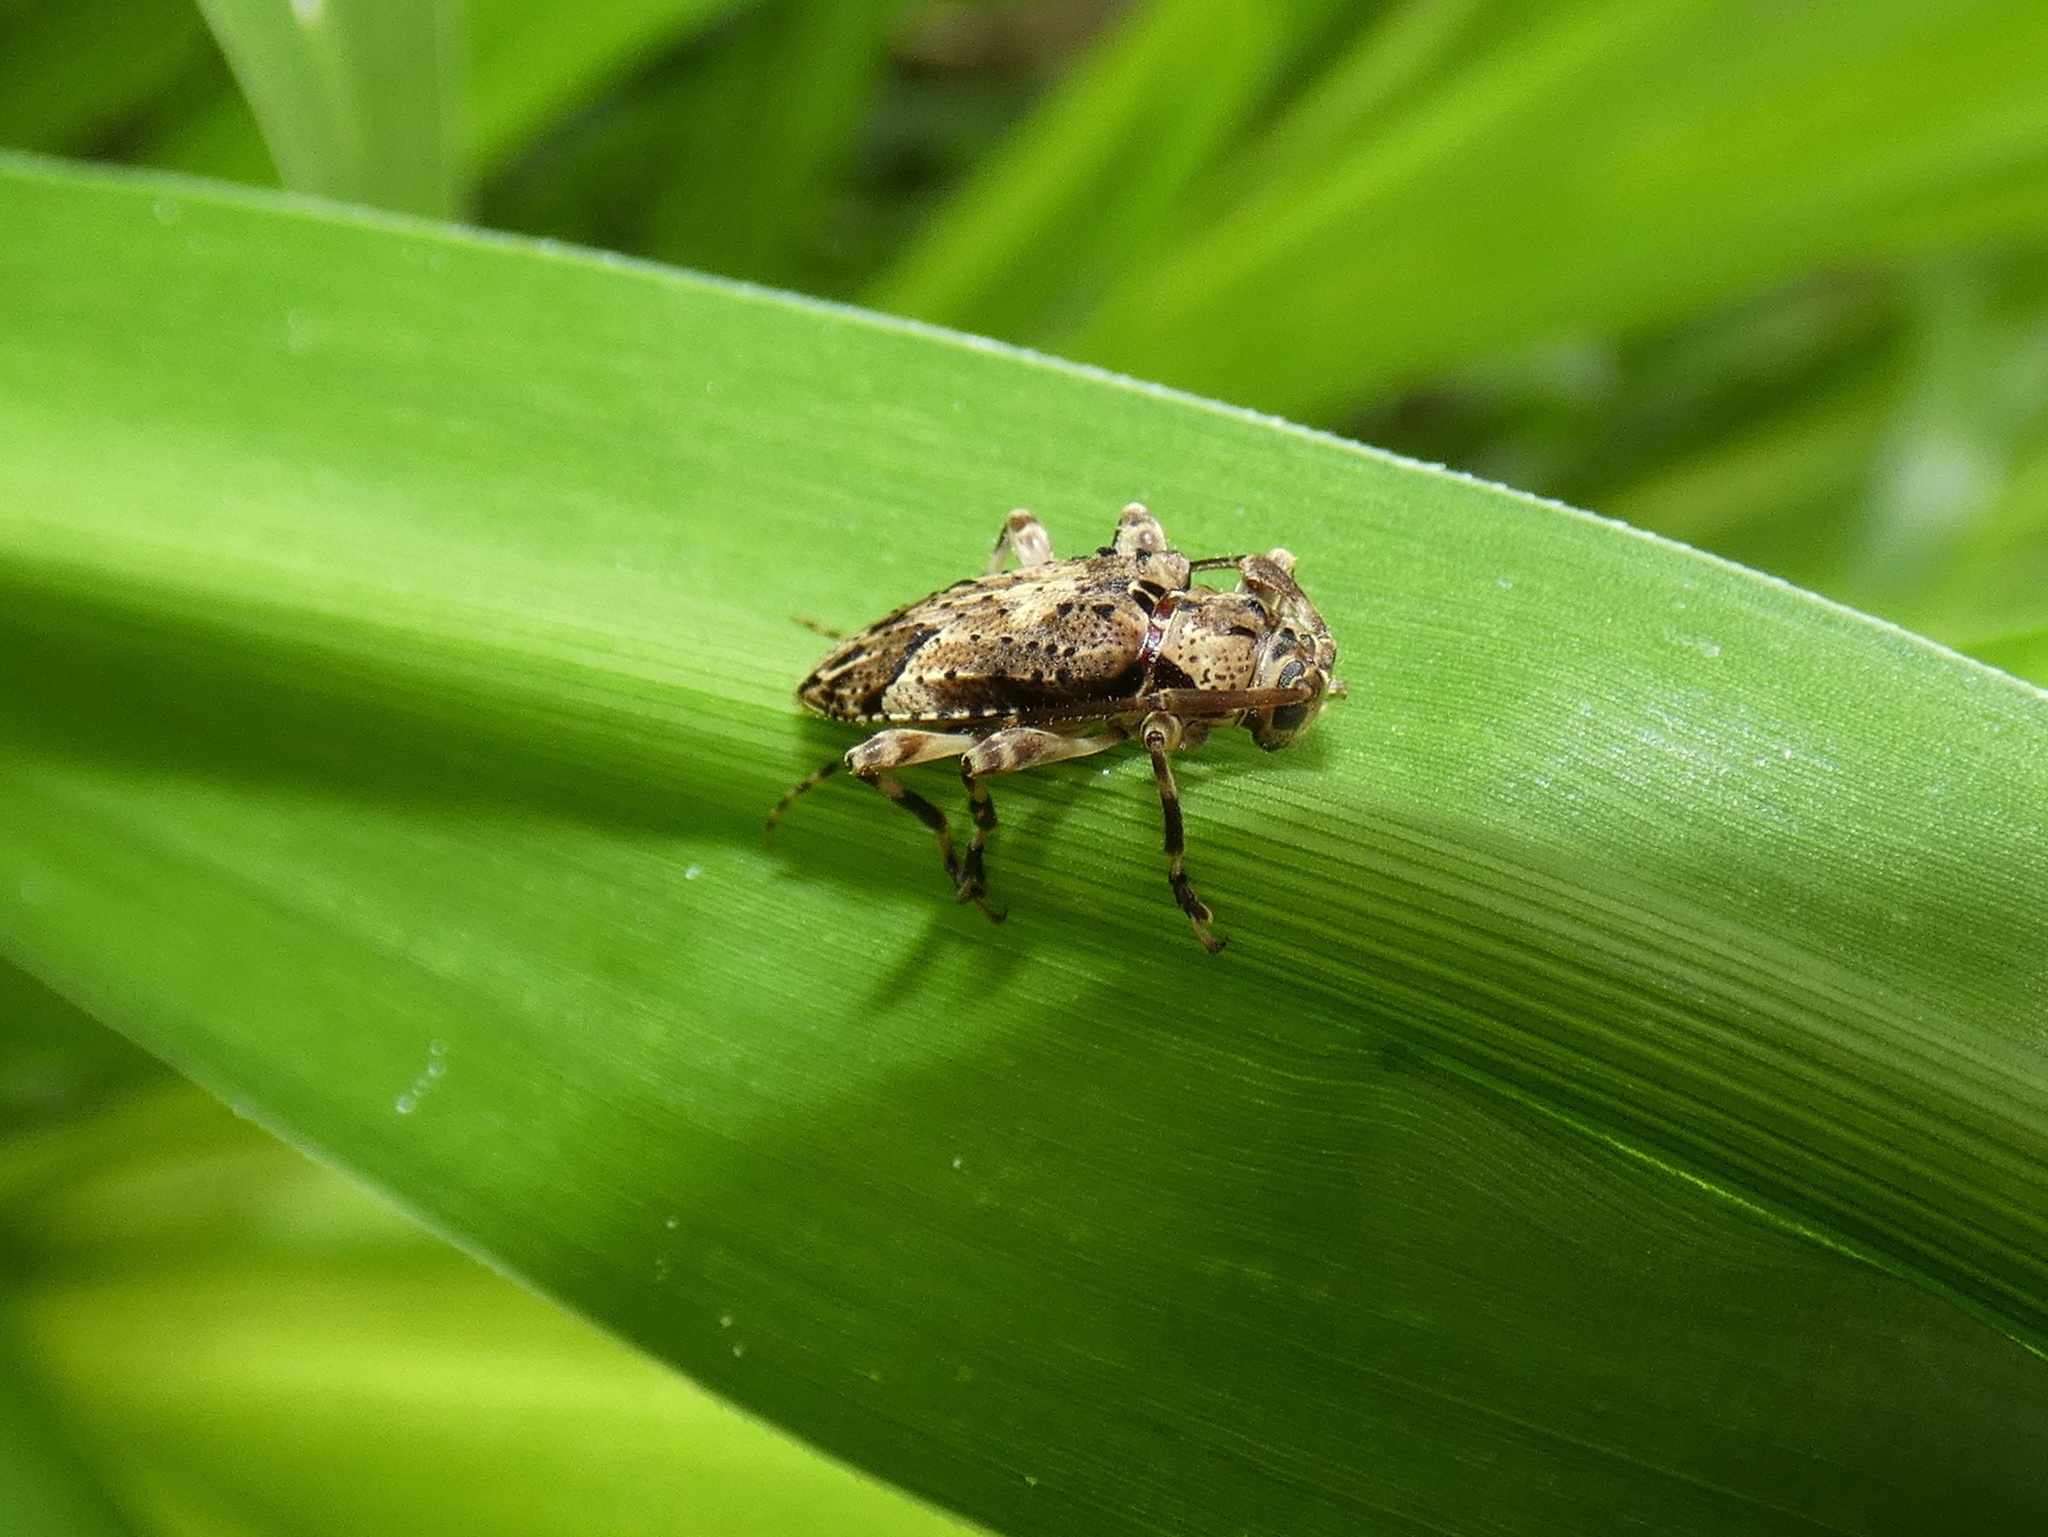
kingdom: Animalia
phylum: Arthropoda
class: Insecta
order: Coleoptera
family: Cerambycidae
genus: Nealcidion
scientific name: Nealcidion brachiale
